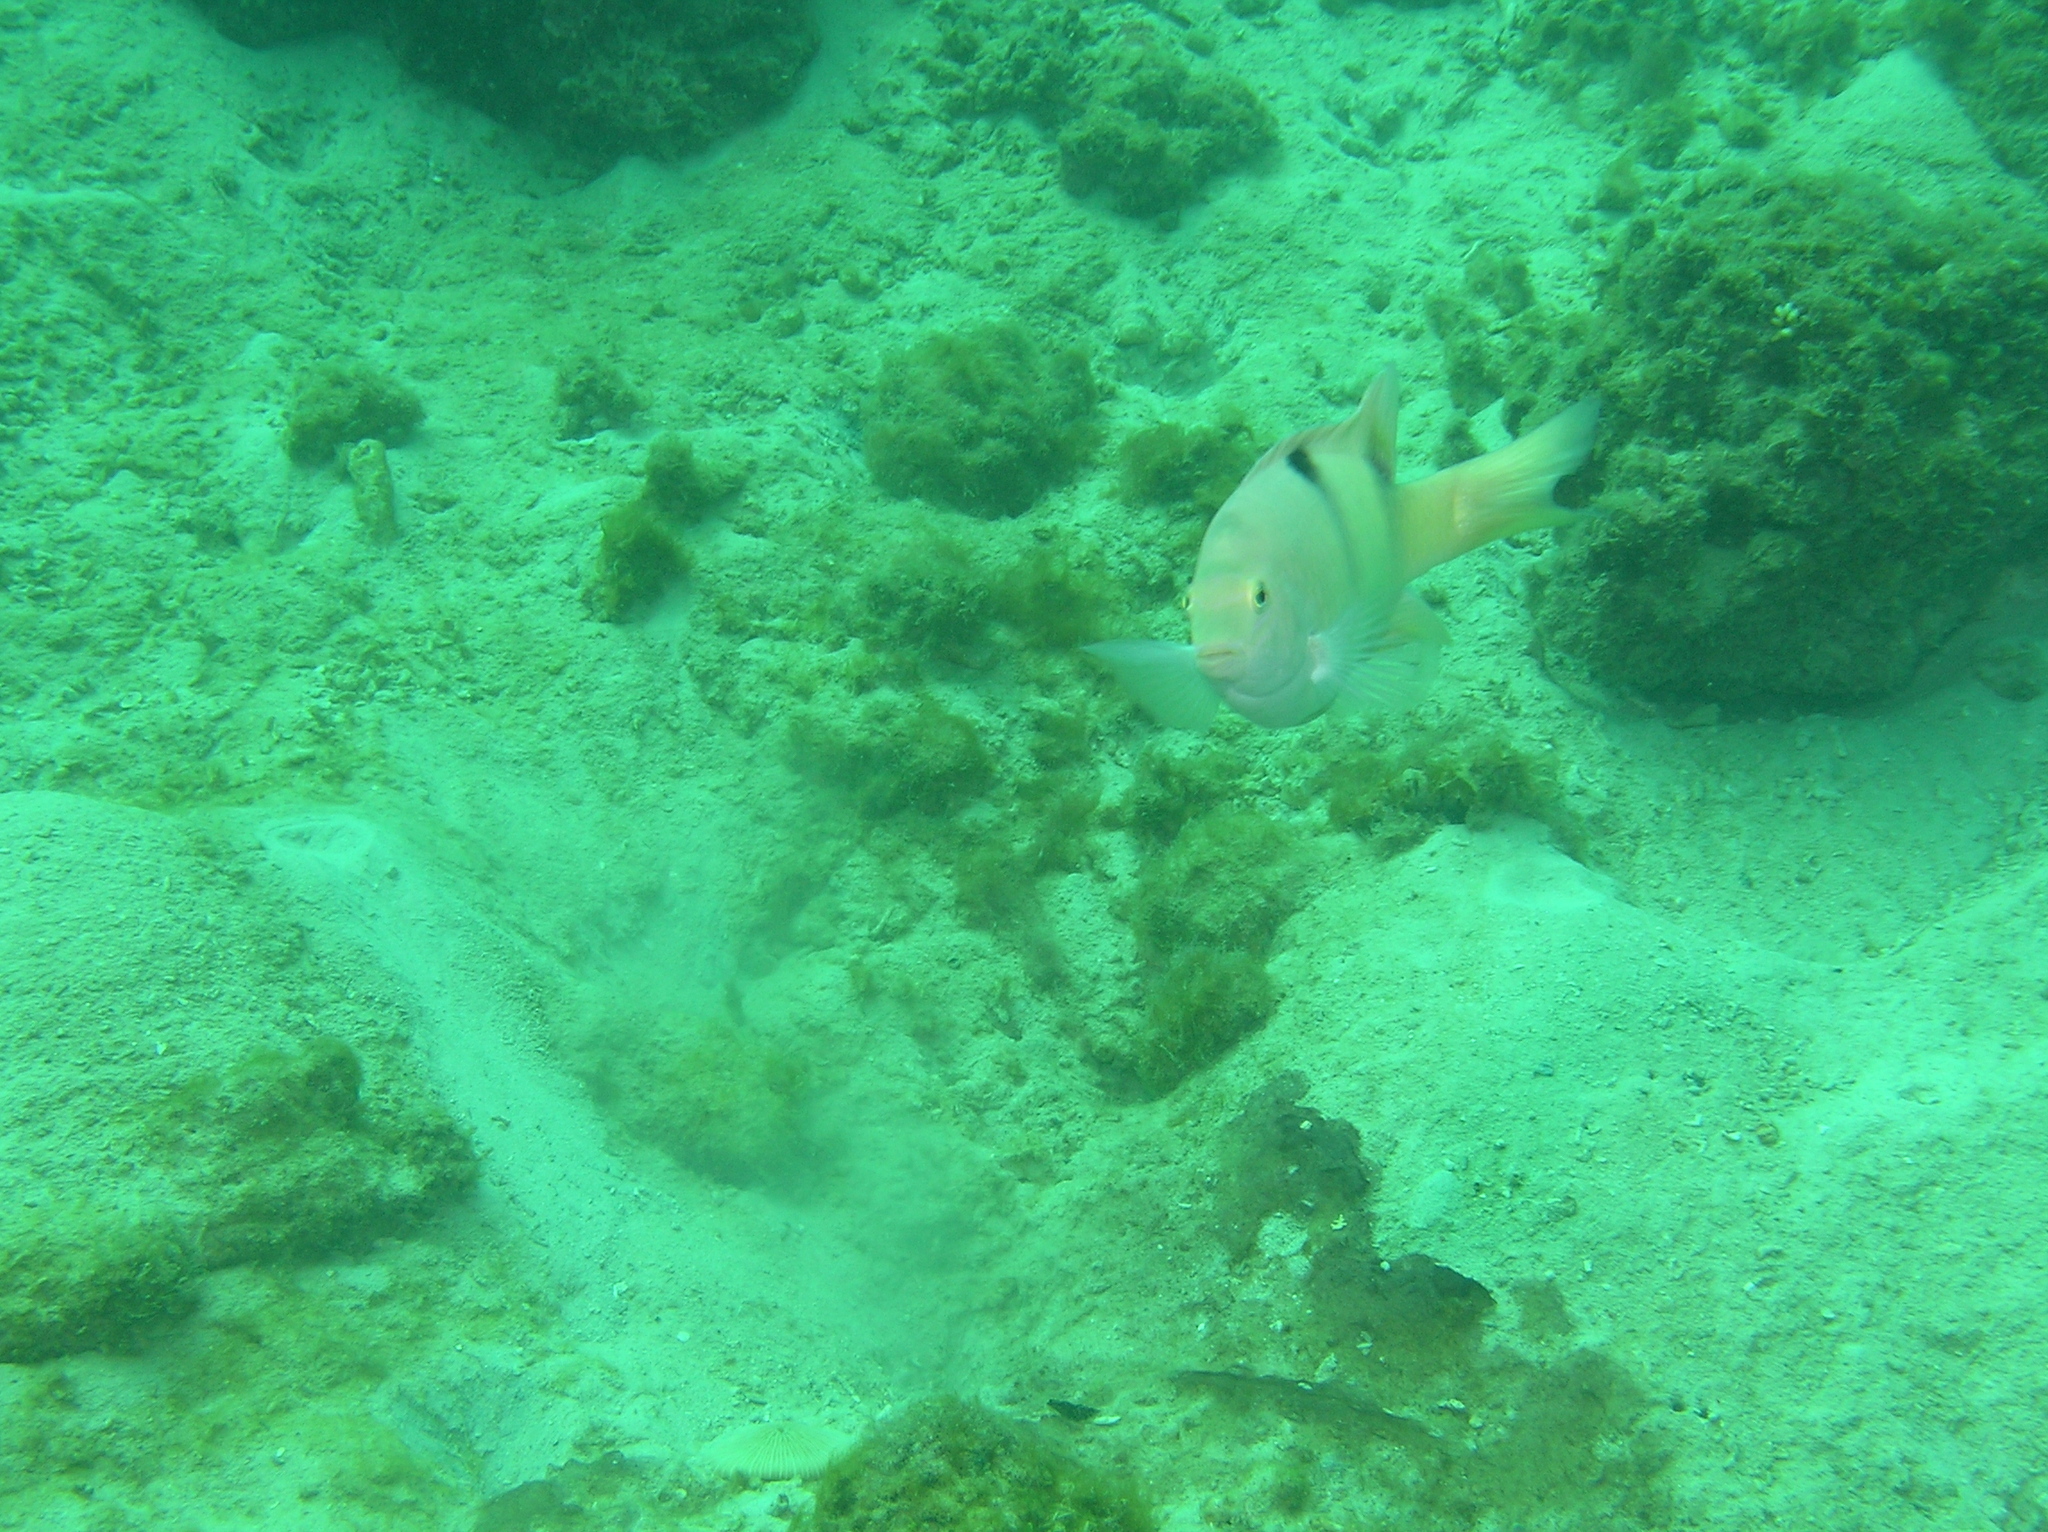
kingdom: Animalia
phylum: Chordata
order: Perciformes
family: Pomacentridae
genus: Dischistodus
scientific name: Dischistodus perspicillatus
